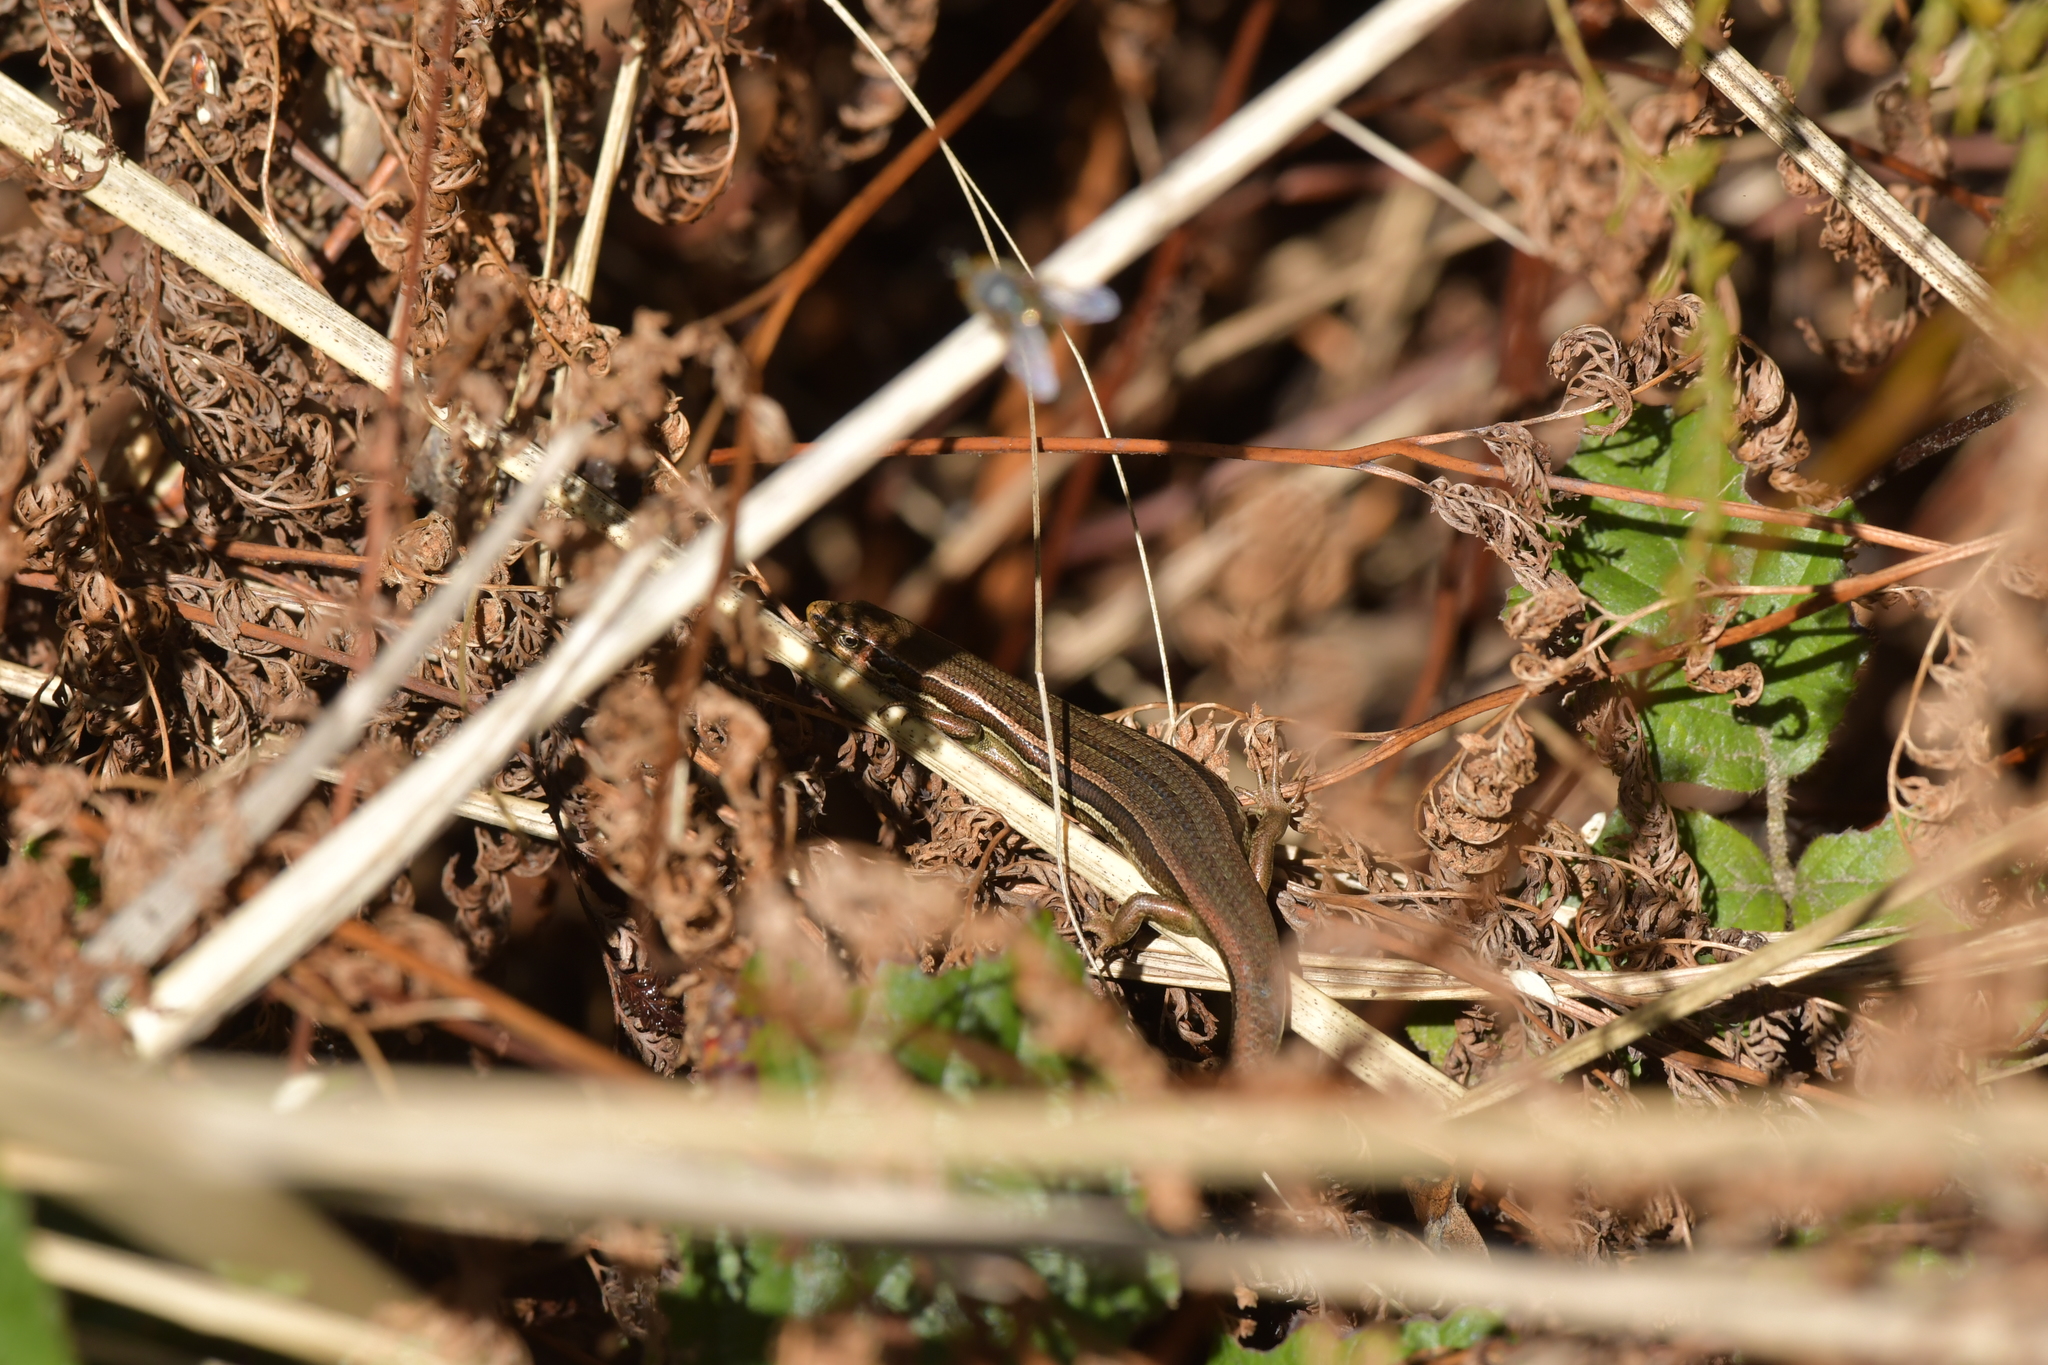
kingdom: Animalia
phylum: Chordata
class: Squamata
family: Scincidae
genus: Oligosoma
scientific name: Oligosoma polychroma
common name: Common new zealand skink
